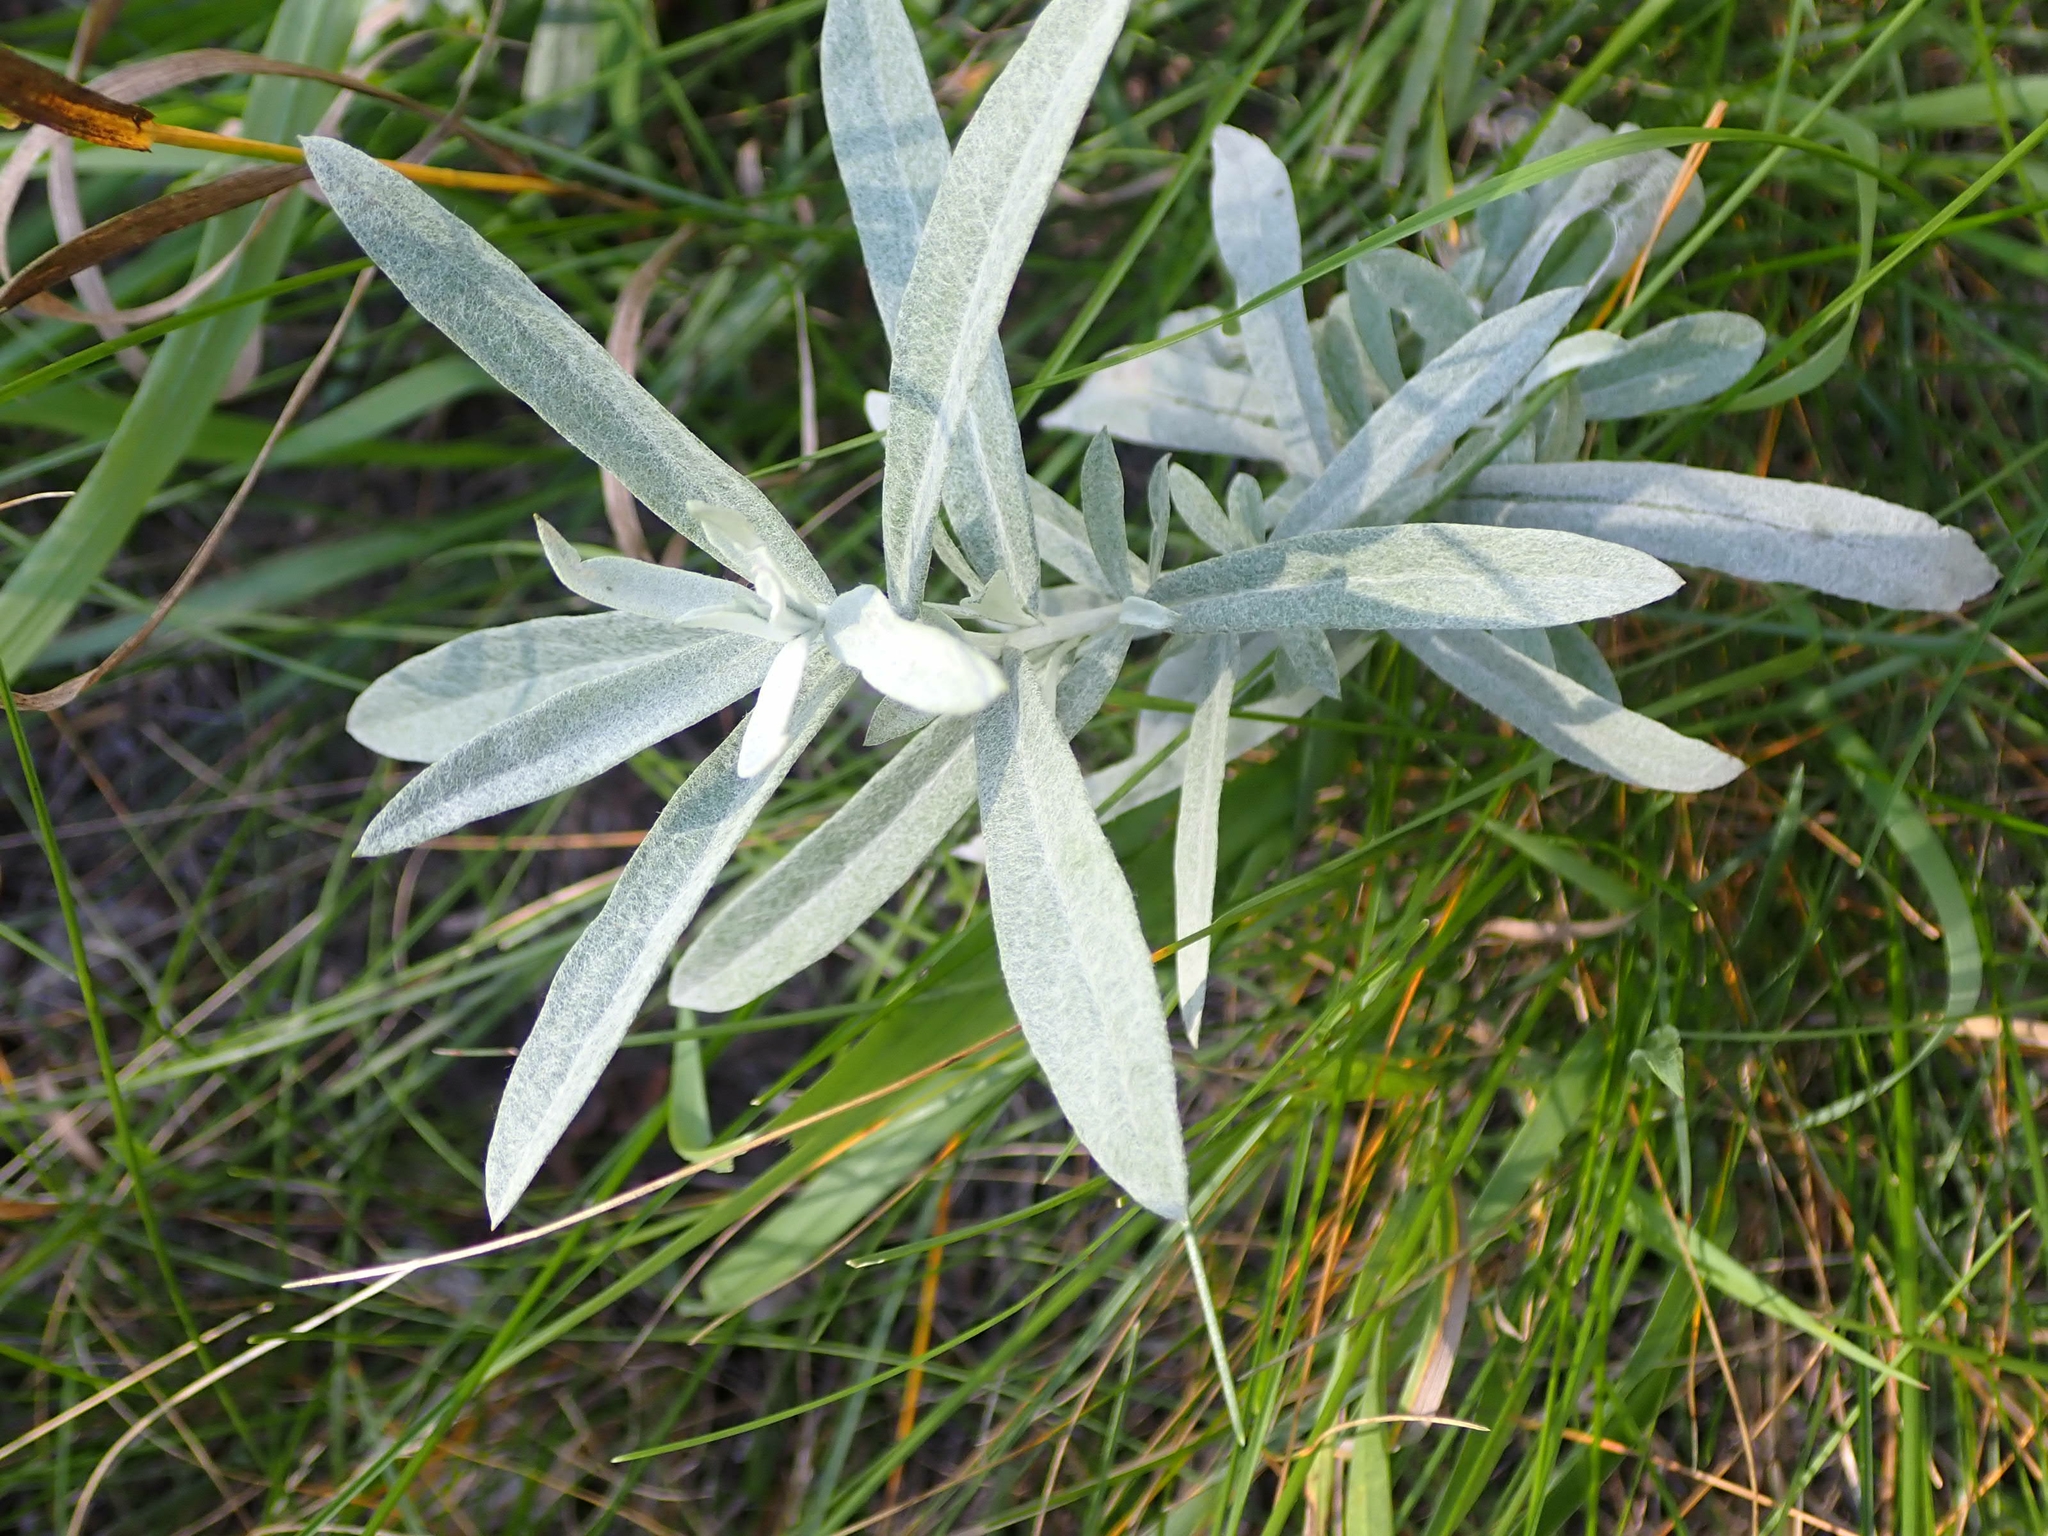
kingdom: Plantae
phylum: Tracheophyta
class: Magnoliopsida
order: Asterales
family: Asteraceae
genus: Artemisia
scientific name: Artemisia ludoviciana
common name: Western mugwort
